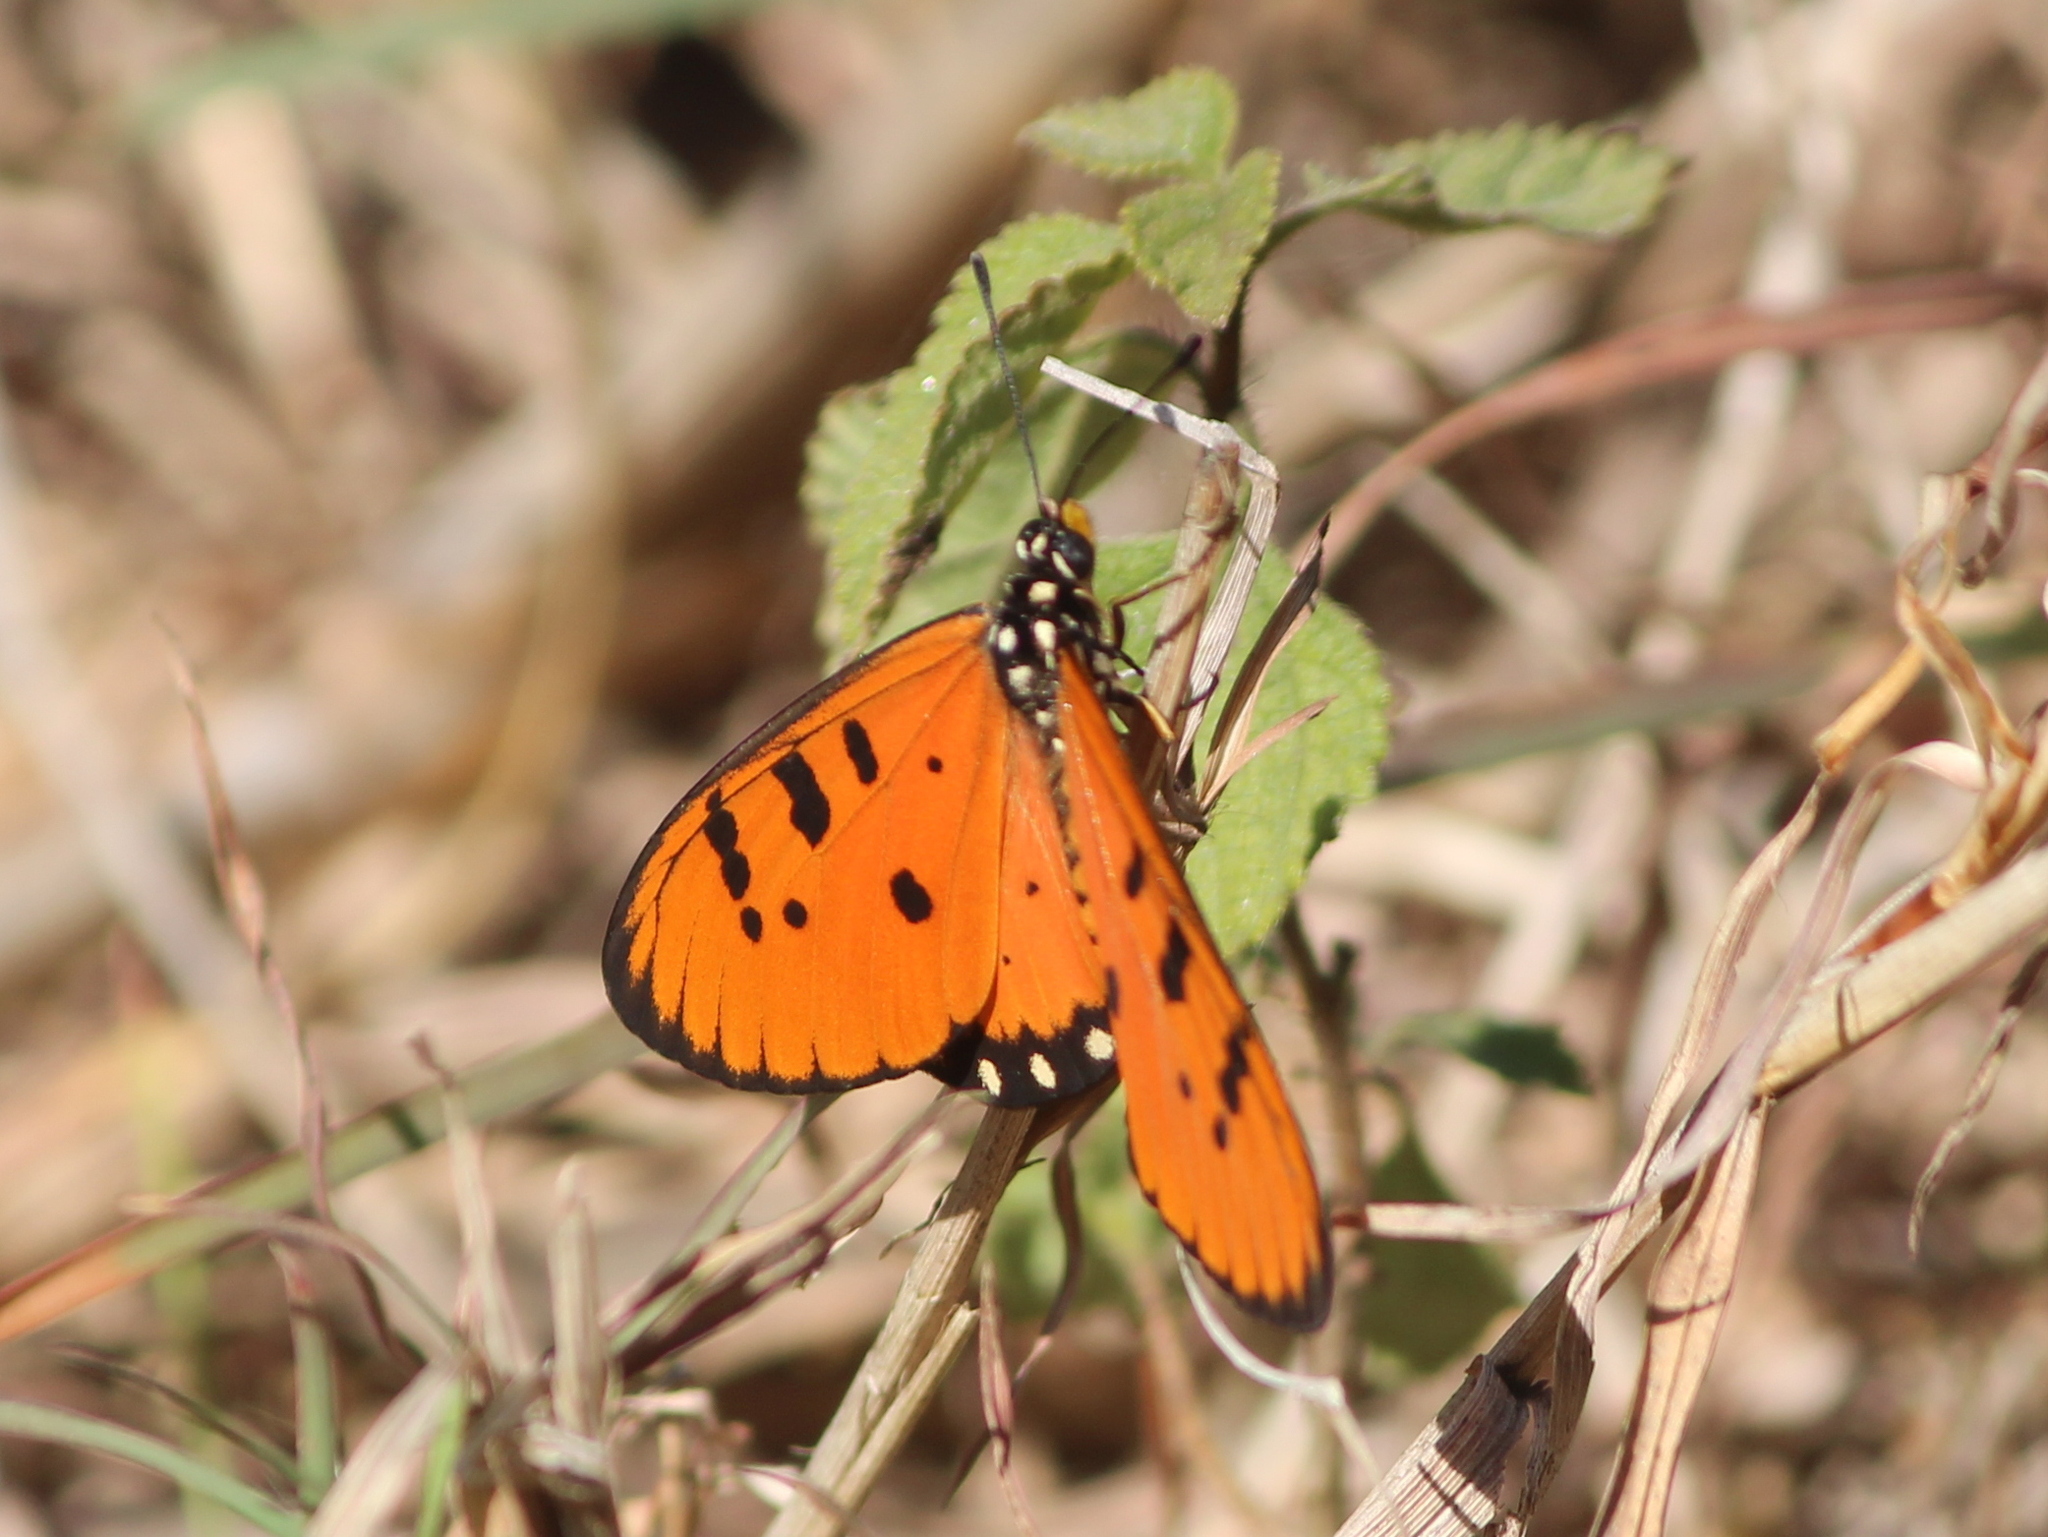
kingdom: Animalia
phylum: Arthropoda
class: Insecta
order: Lepidoptera
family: Nymphalidae
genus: Acraea
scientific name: Acraea terpsicore
